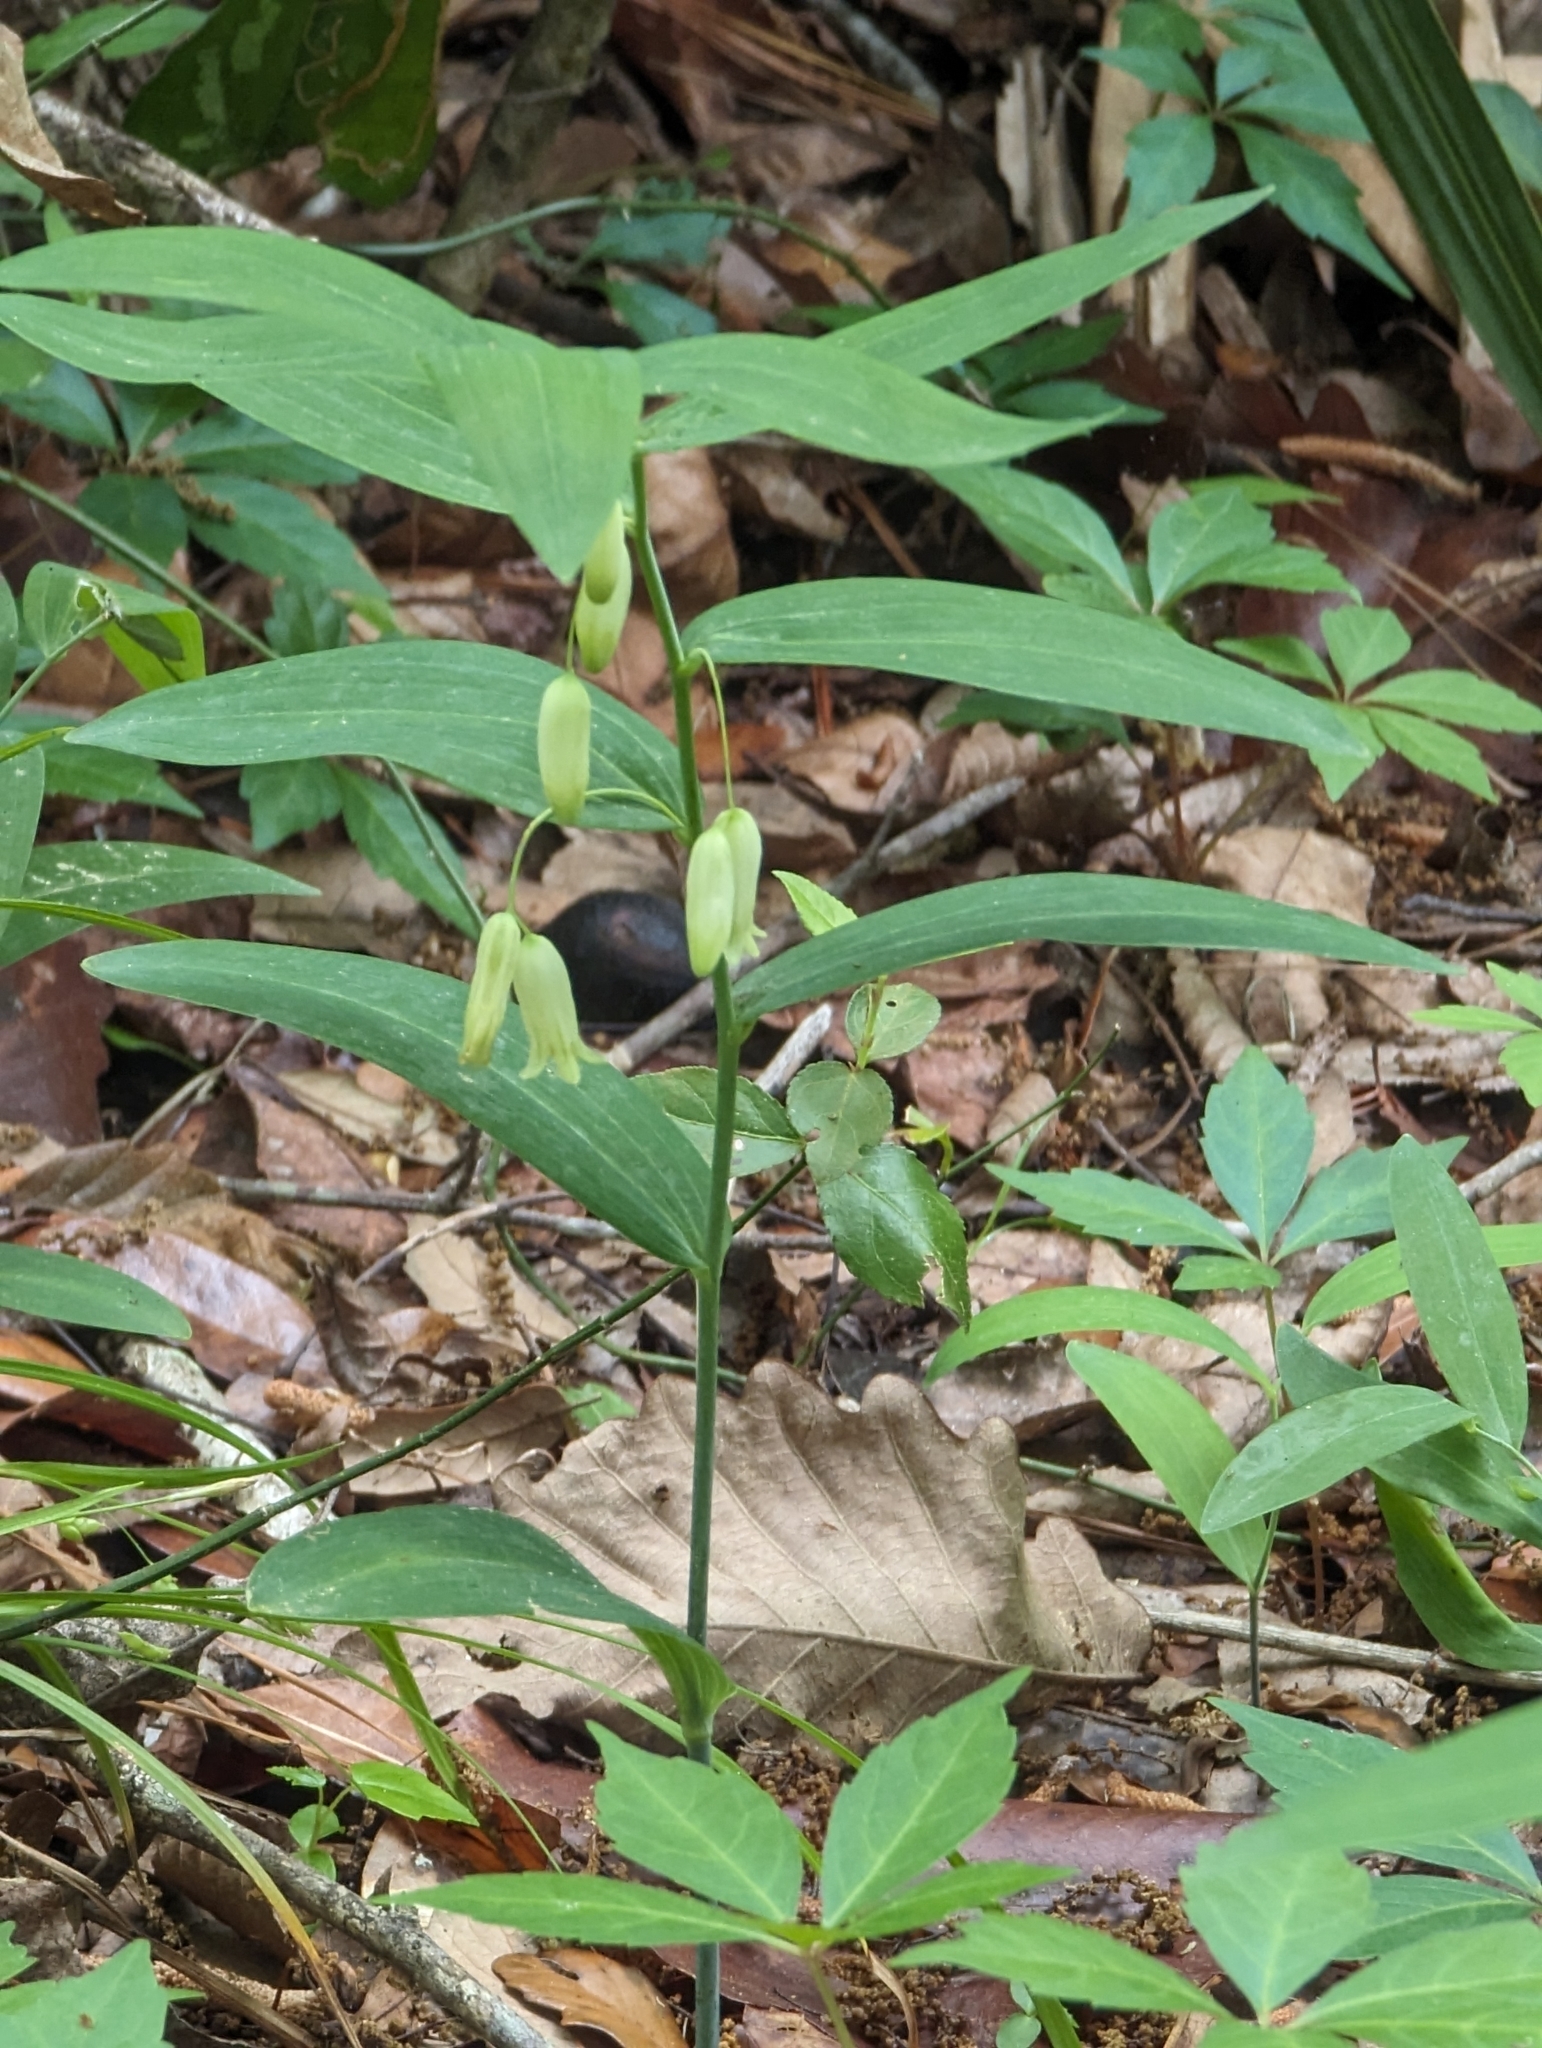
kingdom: Plantae
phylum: Tracheophyta
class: Liliopsida
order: Asparagales
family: Asparagaceae
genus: Polygonatum
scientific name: Polygonatum biflorum
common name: American solomon's-seal
